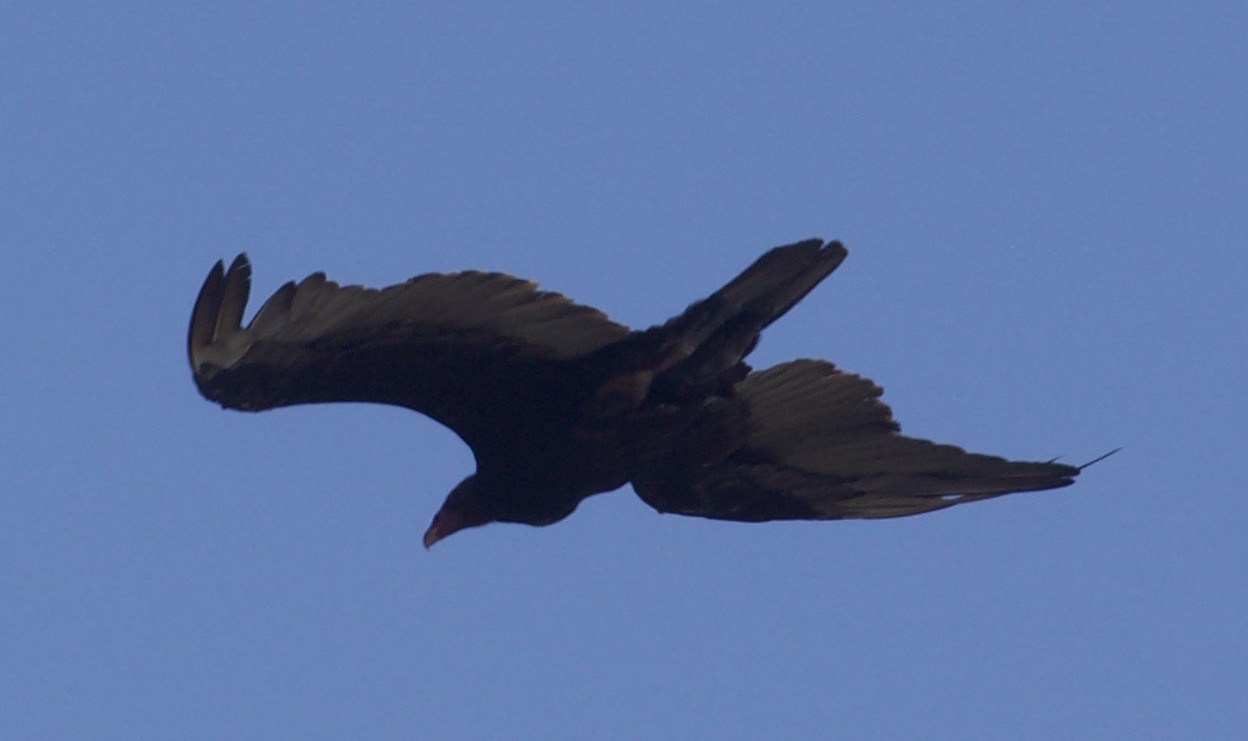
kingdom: Animalia
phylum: Chordata
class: Aves
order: Accipitriformes
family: Cathartidae
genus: Cathartes
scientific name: Cathartes aura
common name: Turkey vulture
